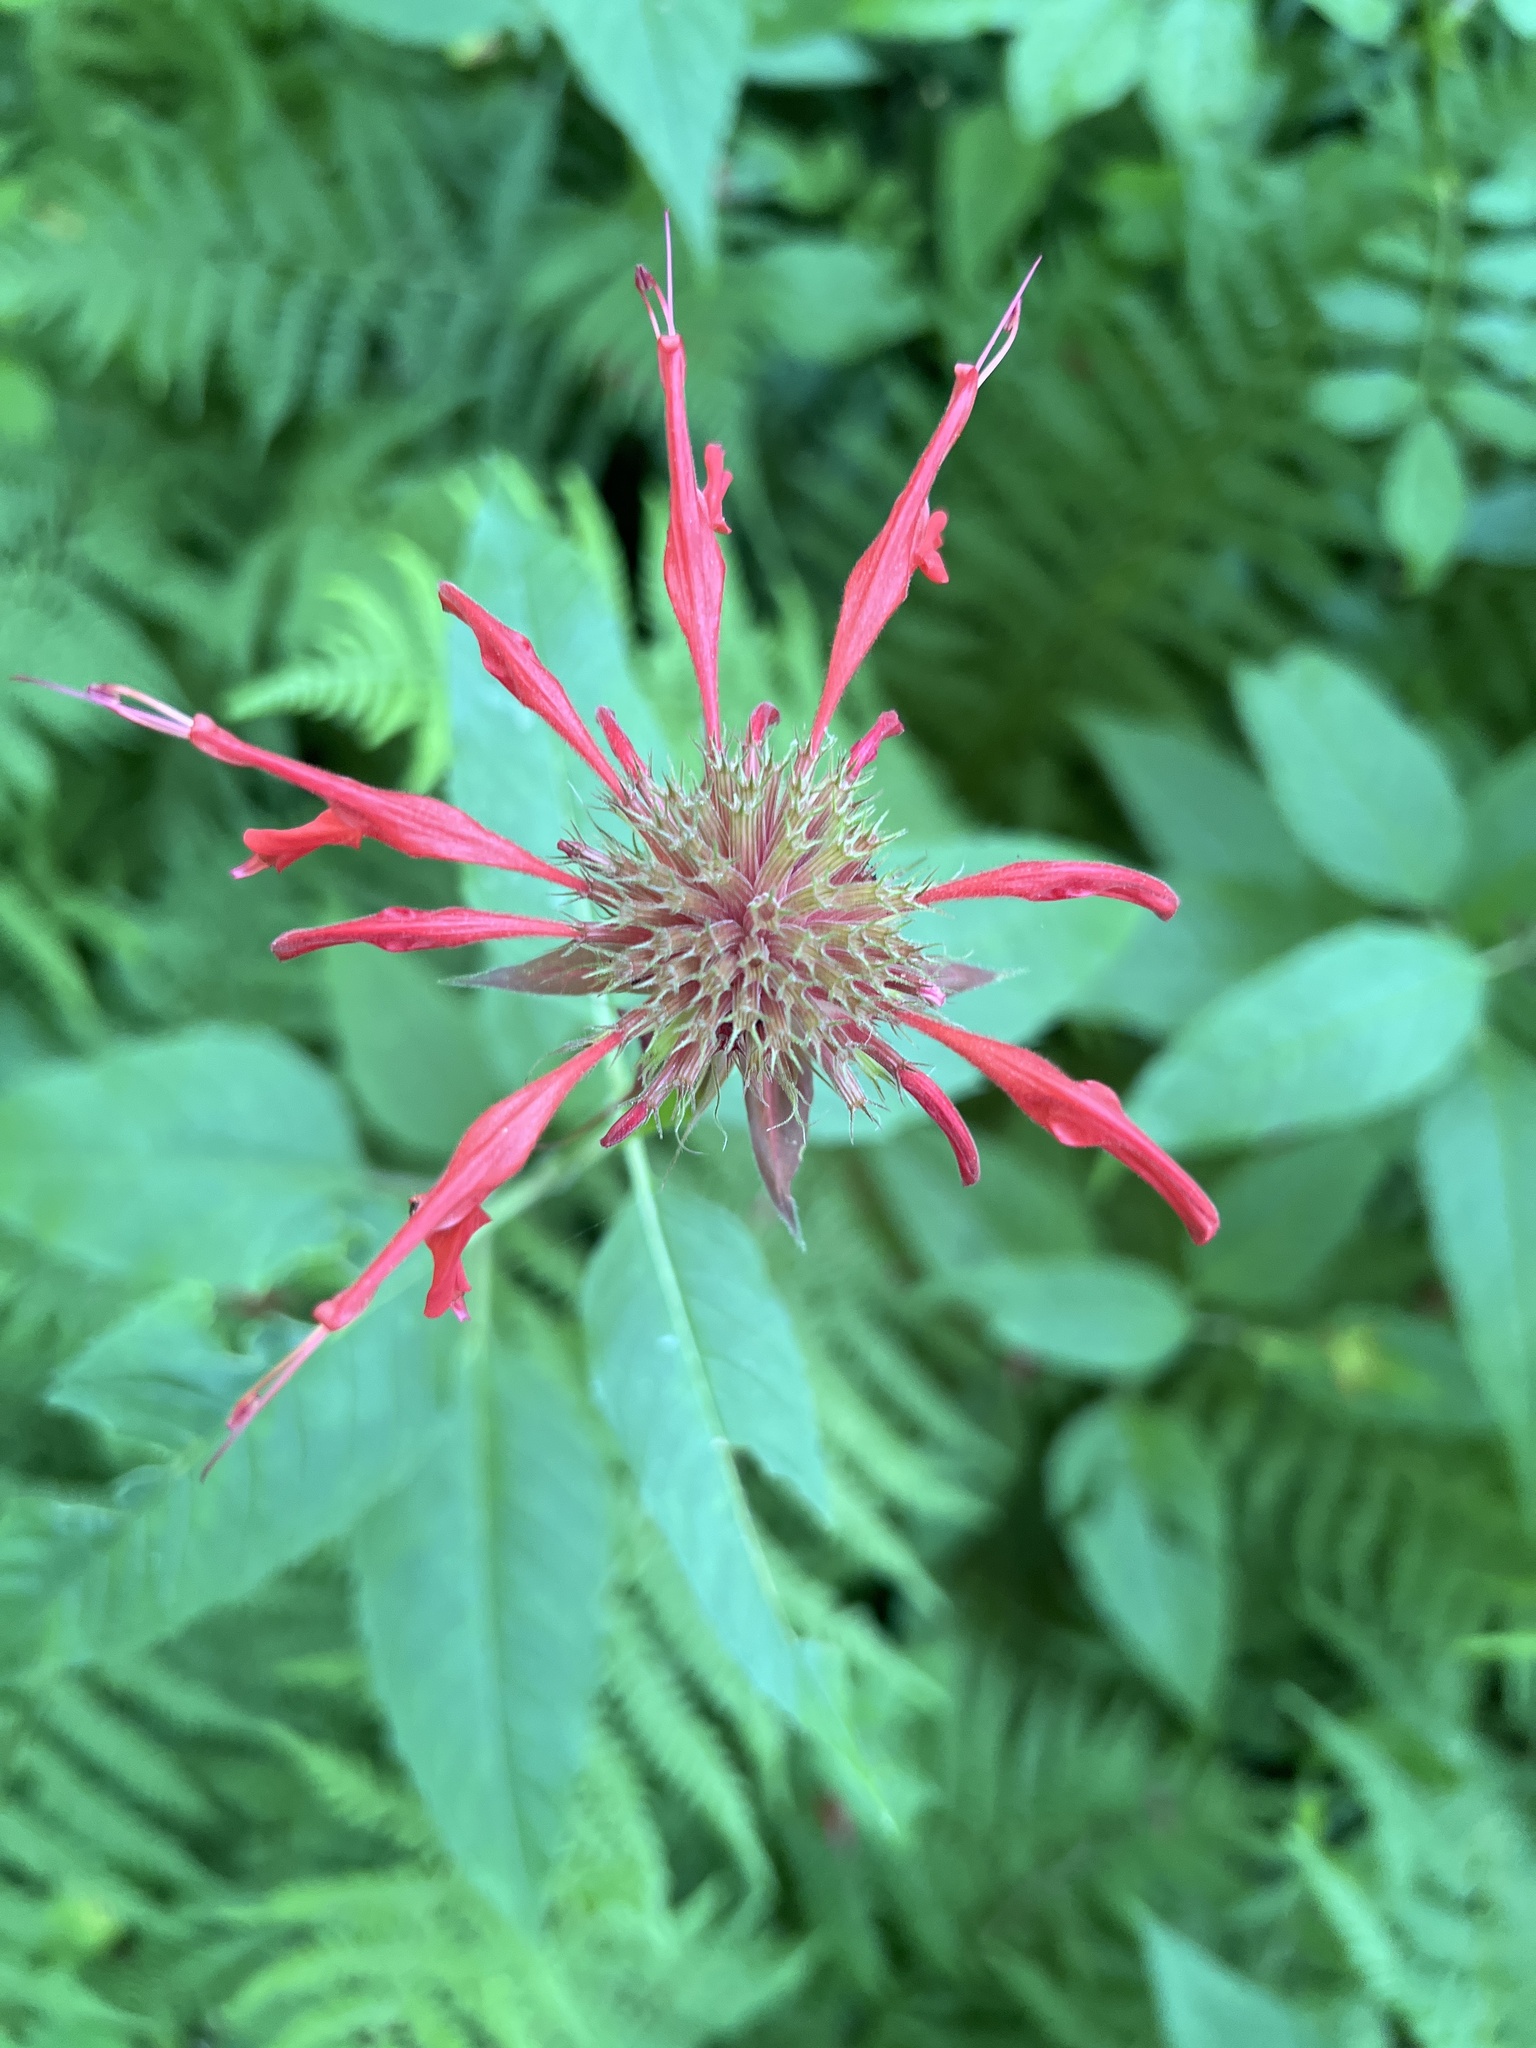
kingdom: Plantae
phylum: Tracheophyta
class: Magnoliopsida
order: Lamiales
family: Lamiaceae
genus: Monarda
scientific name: Monarda didyma
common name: Beebalm
